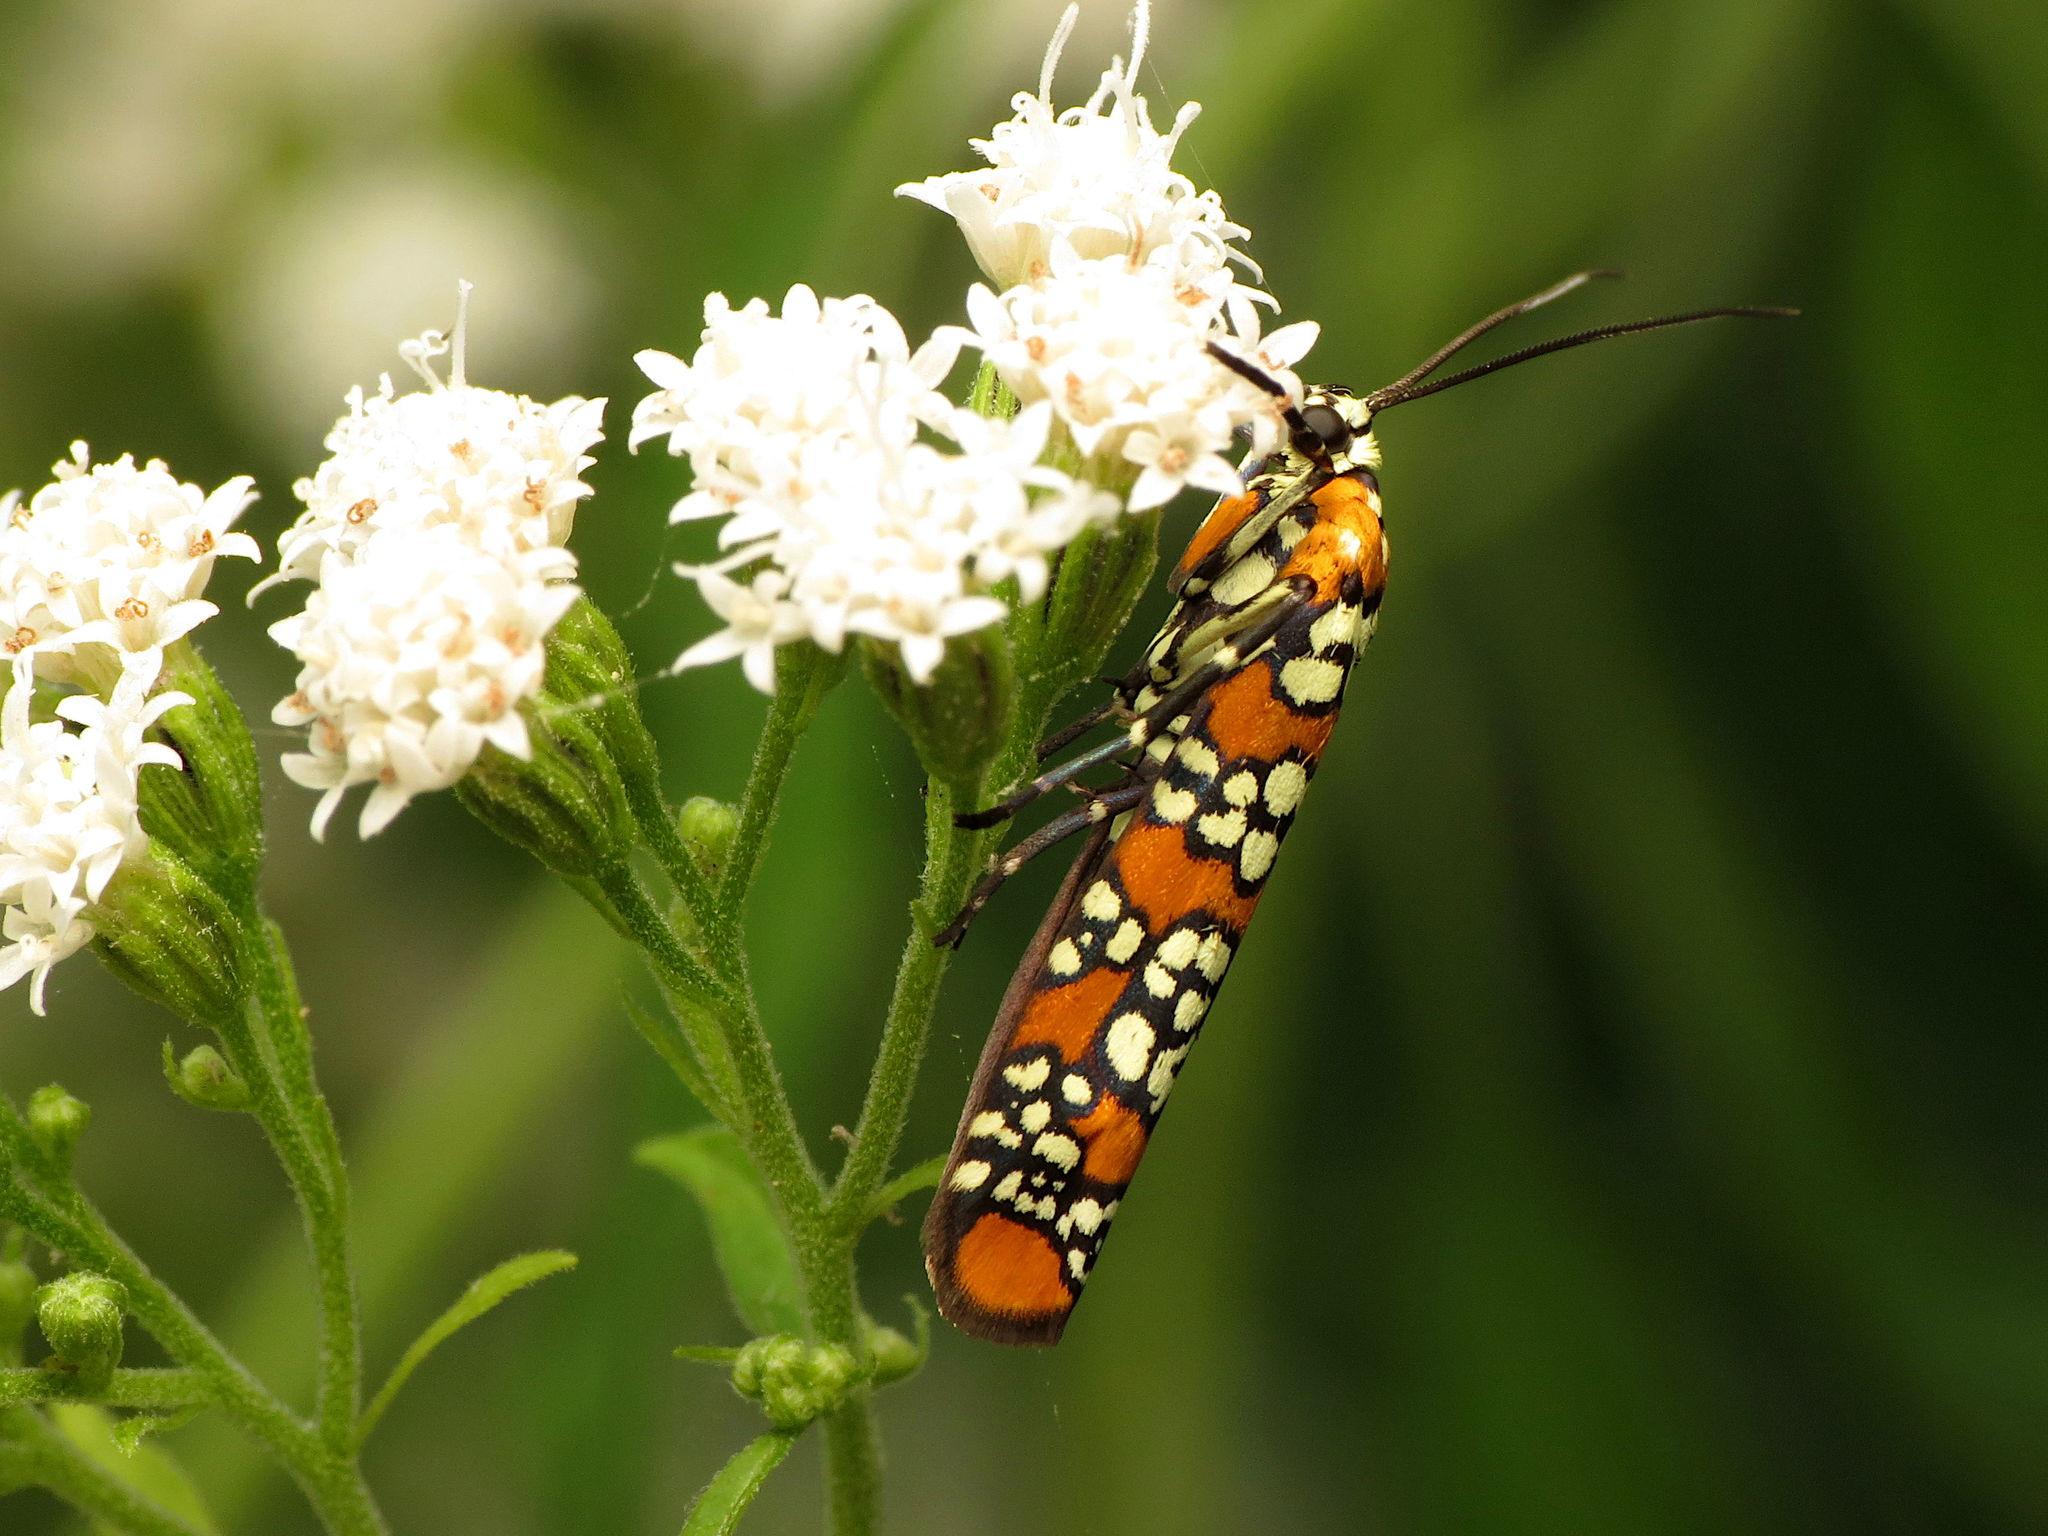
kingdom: Animalia
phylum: Arthropoda
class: Insecta
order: Lepidoptera
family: Attevidae
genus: Atteva
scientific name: Atteva punctella
